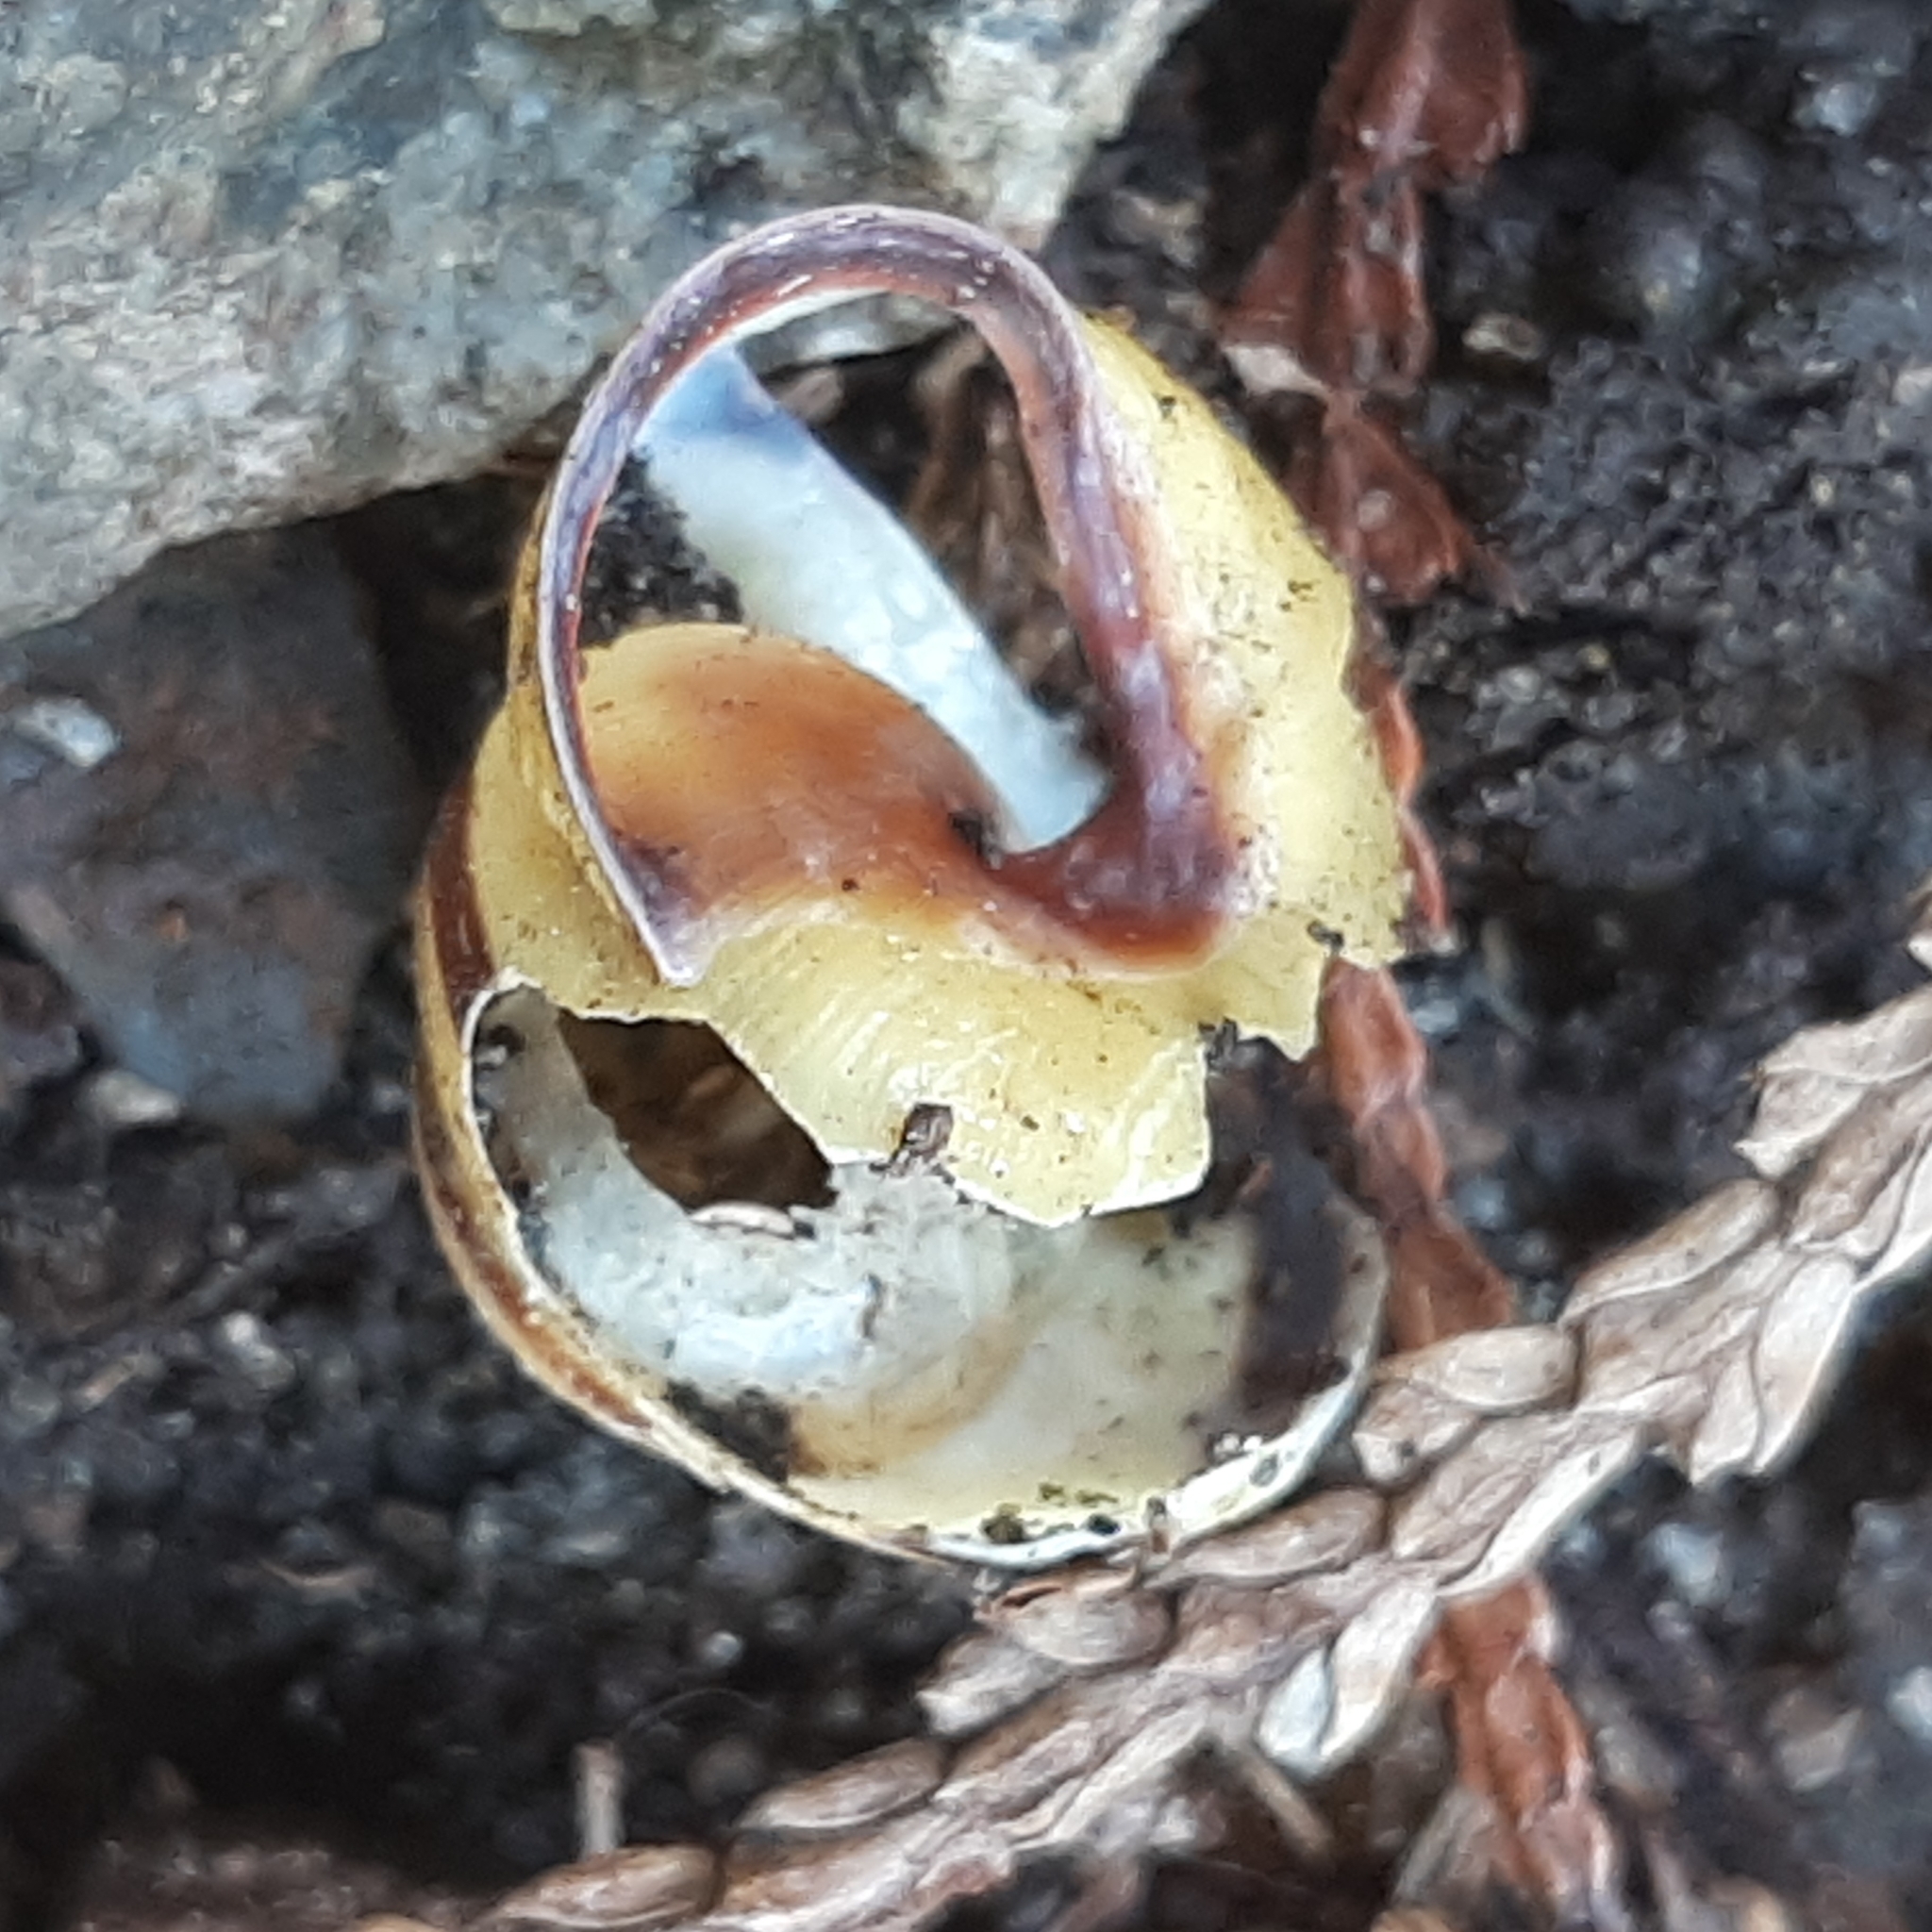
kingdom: Animalia
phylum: Mollusca
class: Gastropoda
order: Stylommatophora
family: Helicidae
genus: Cepaea
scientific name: Cepaea nemoralis
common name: Grovesnail
